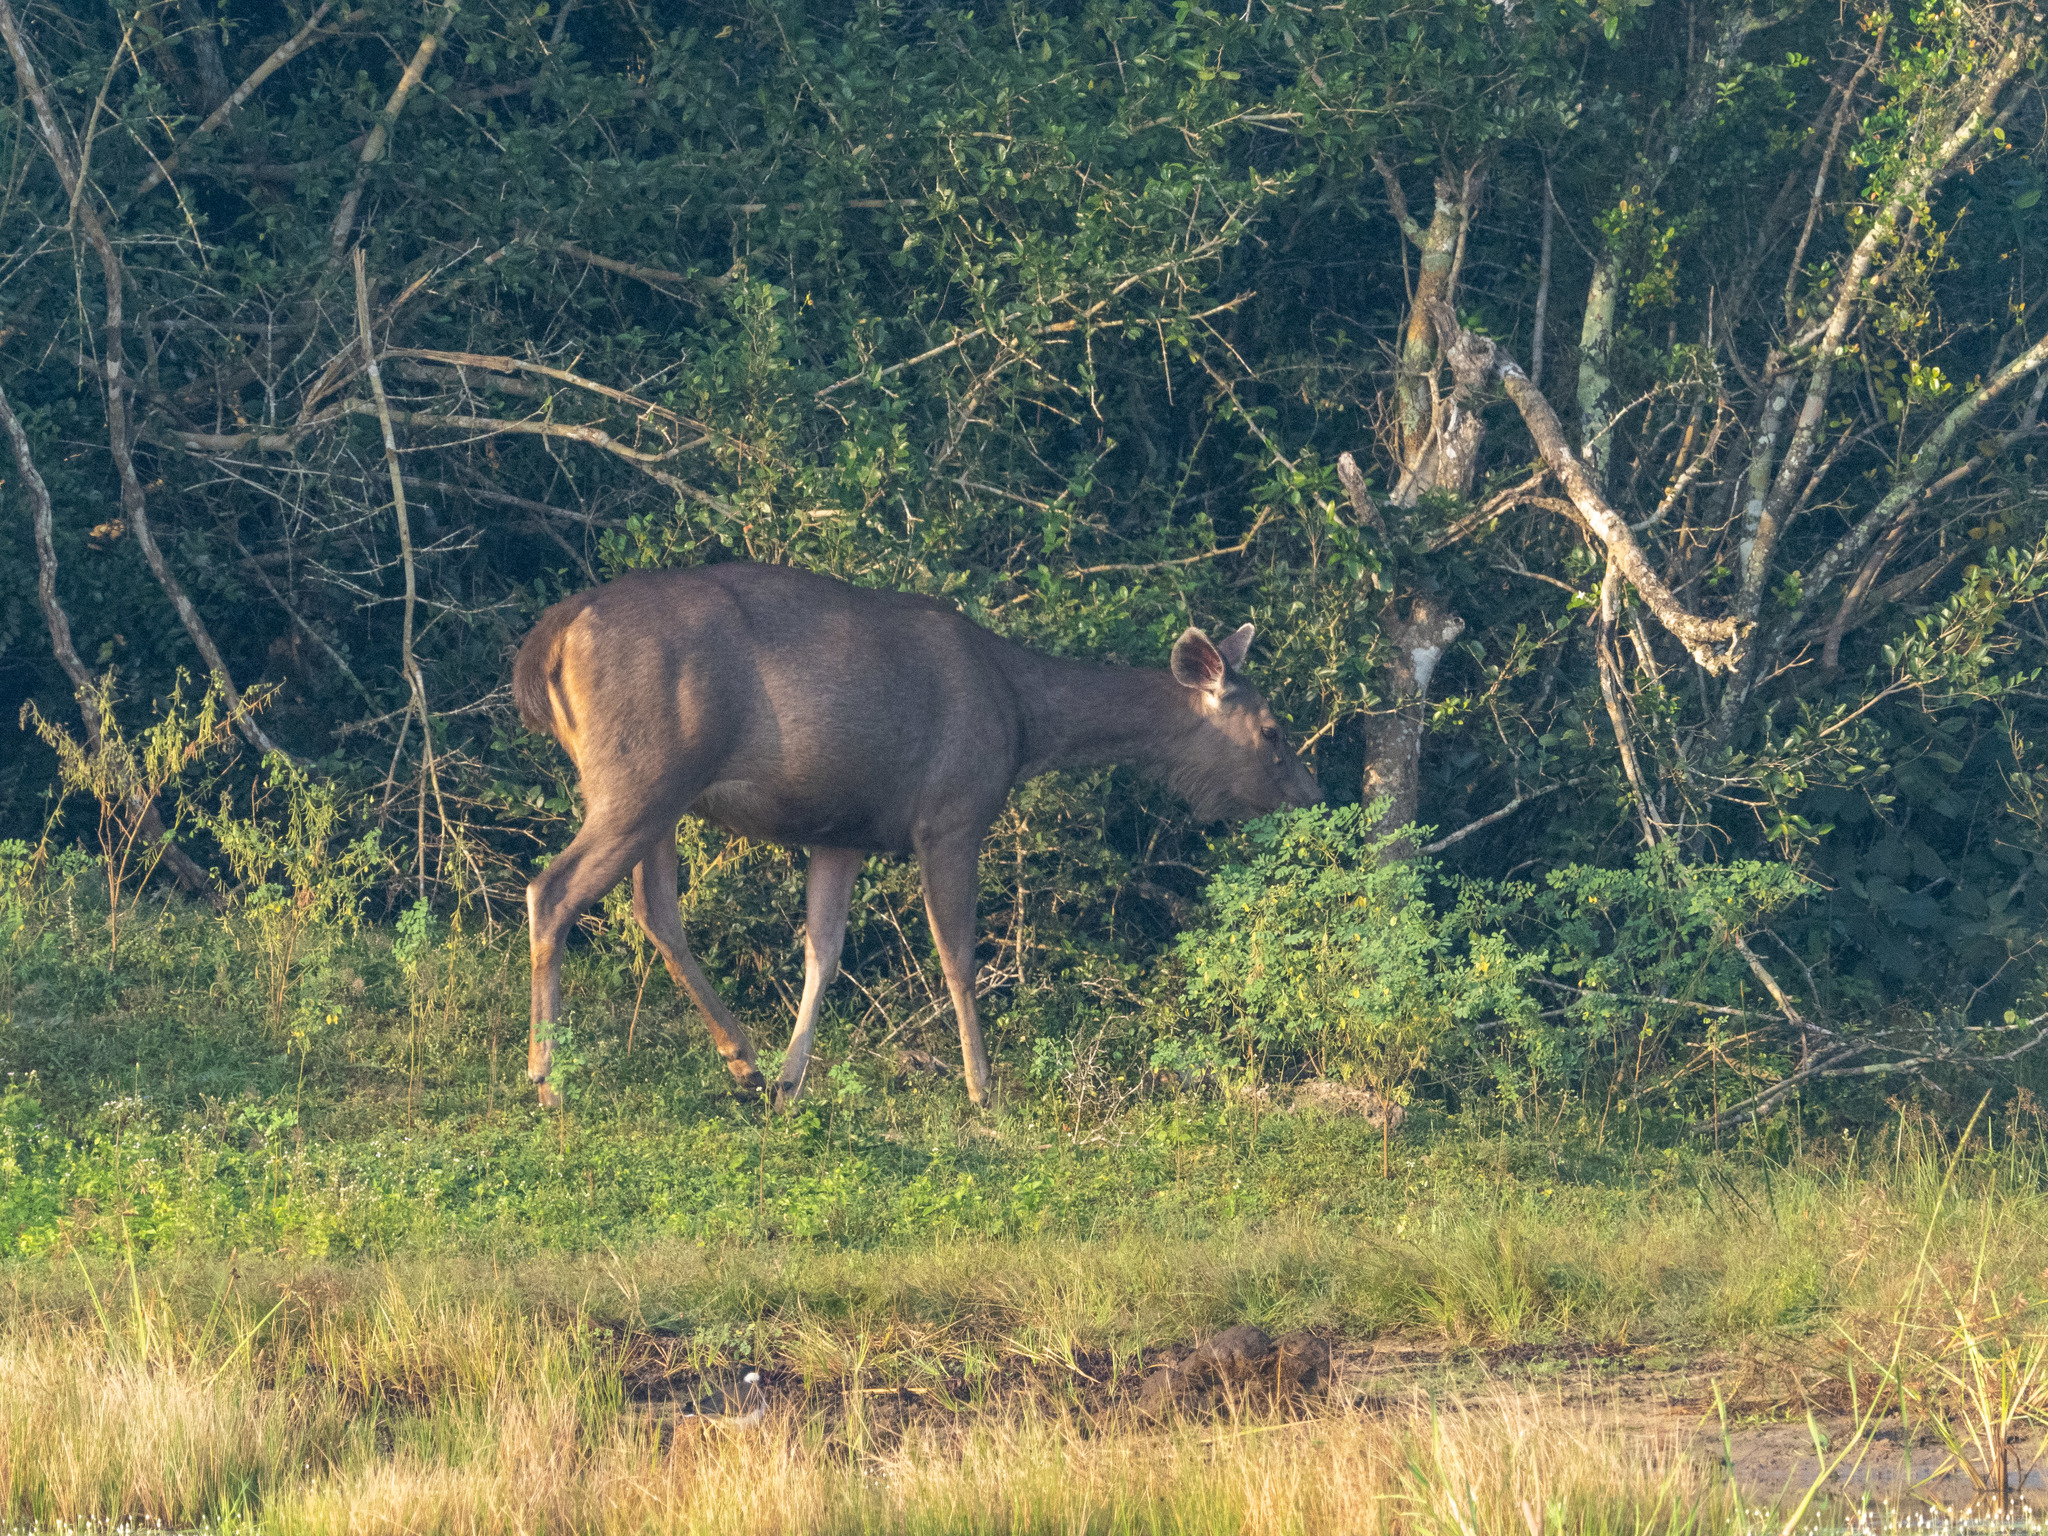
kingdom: Animalia
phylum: Chordata
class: Mammalia
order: Artiodactyla
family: Cervidae
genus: Rusa
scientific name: Rusa unicolor
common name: Sambar
